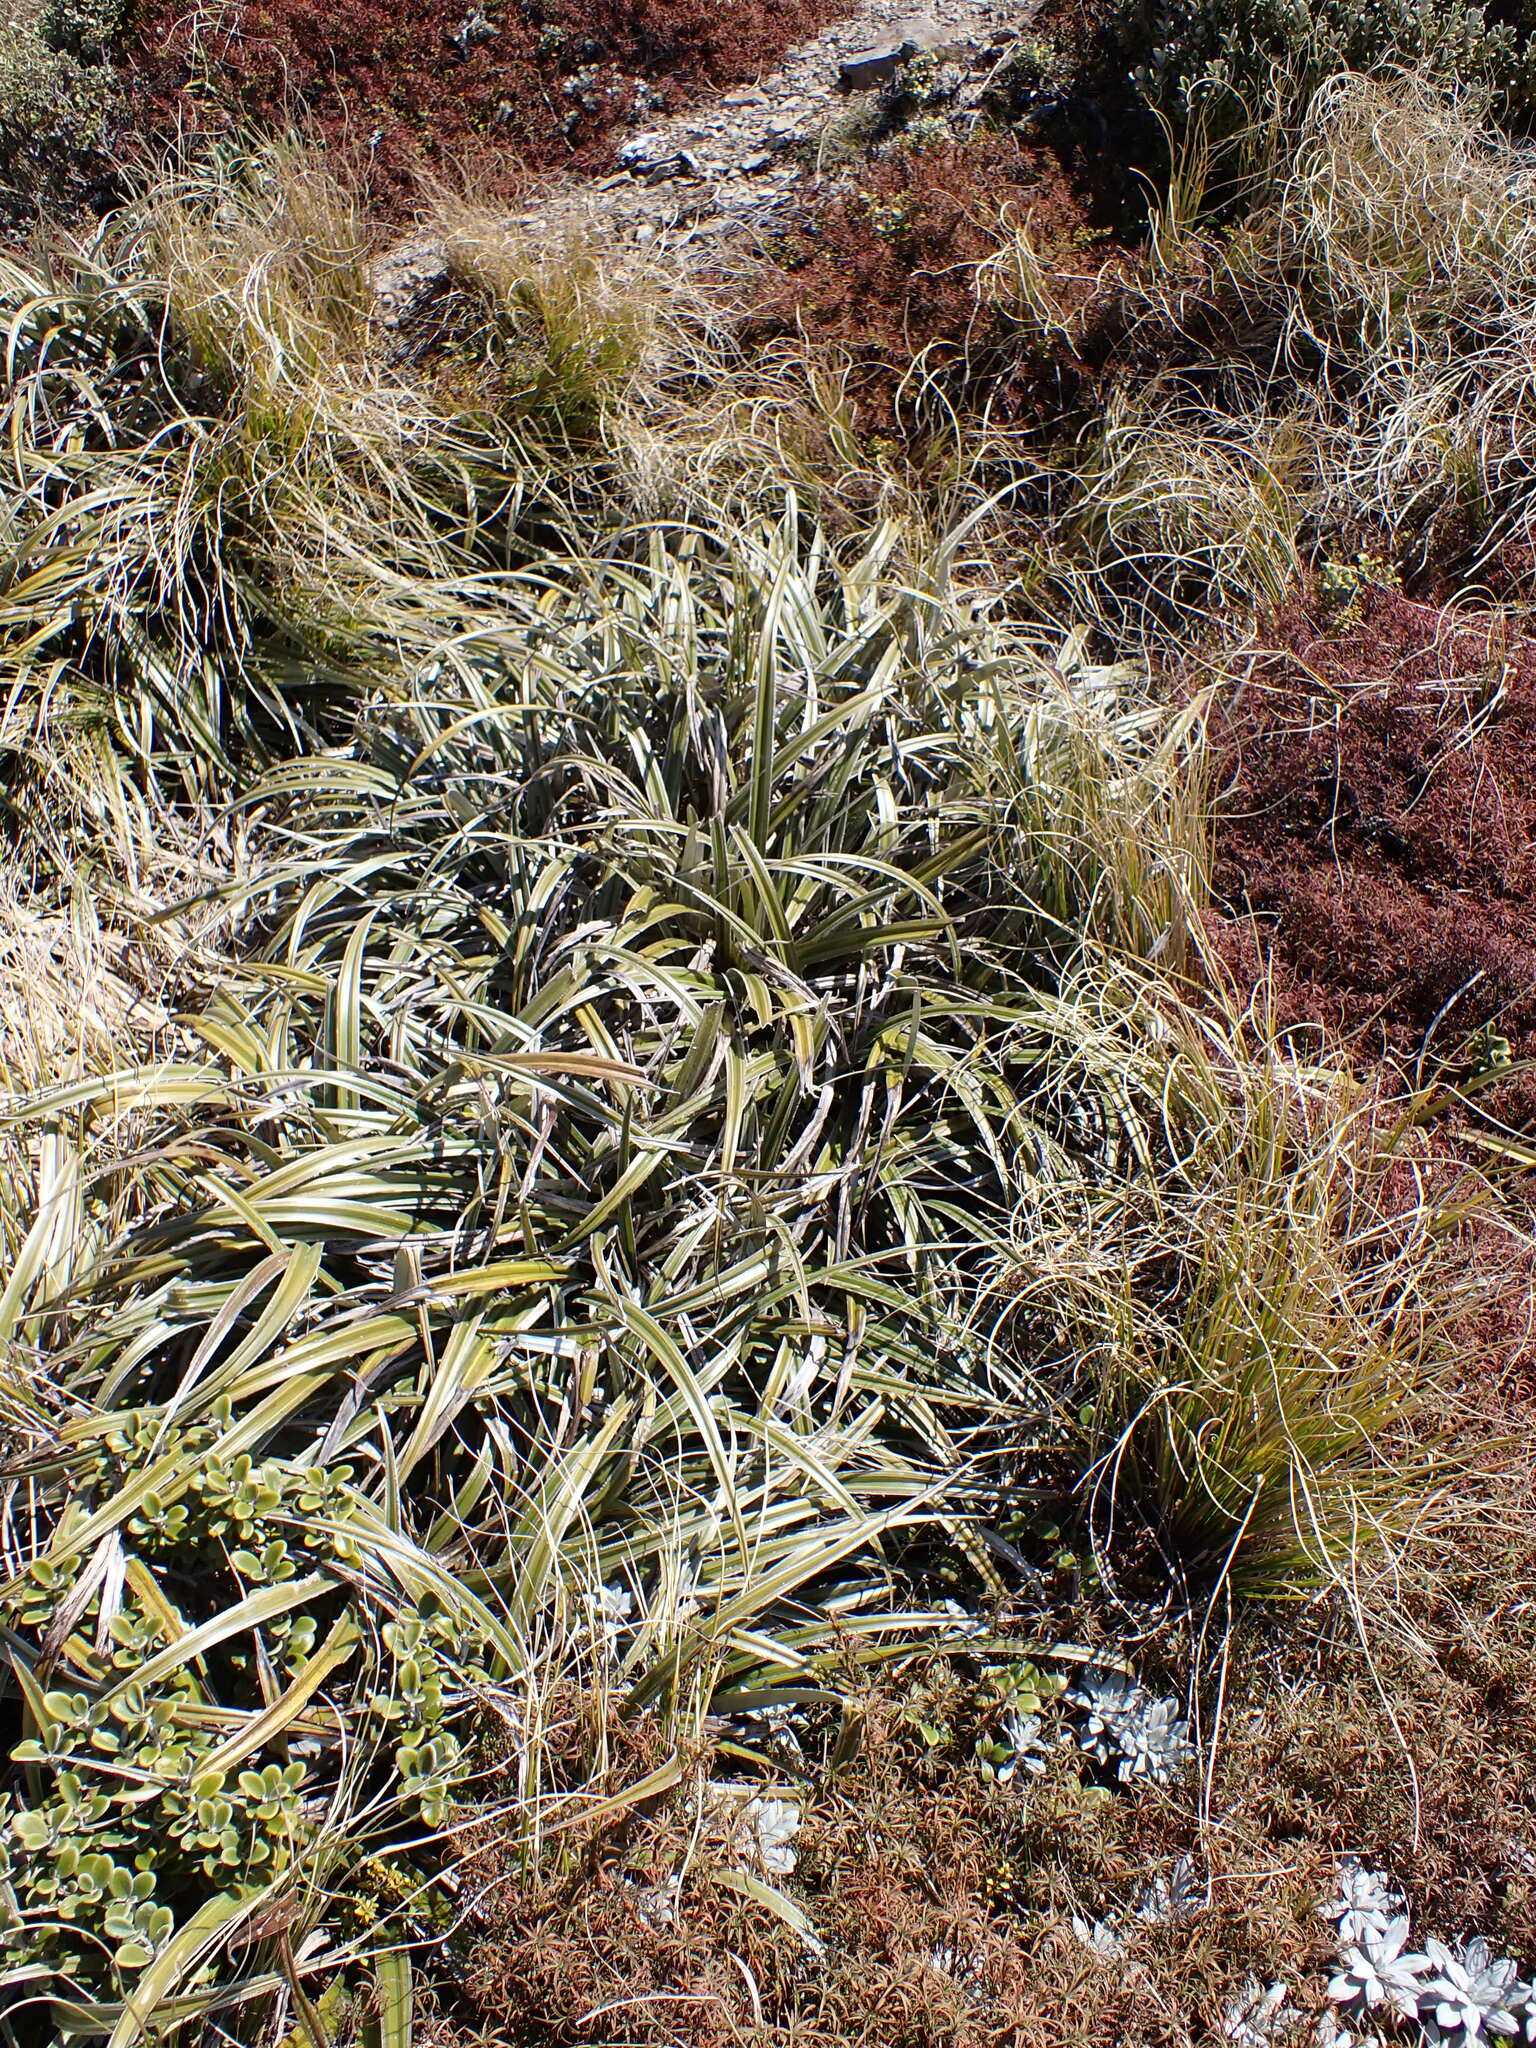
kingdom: Plantae
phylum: Tracheophyta
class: Liliopsida
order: Asparagales
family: Asteliaceae
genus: Astelia
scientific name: Astelia nervosa
